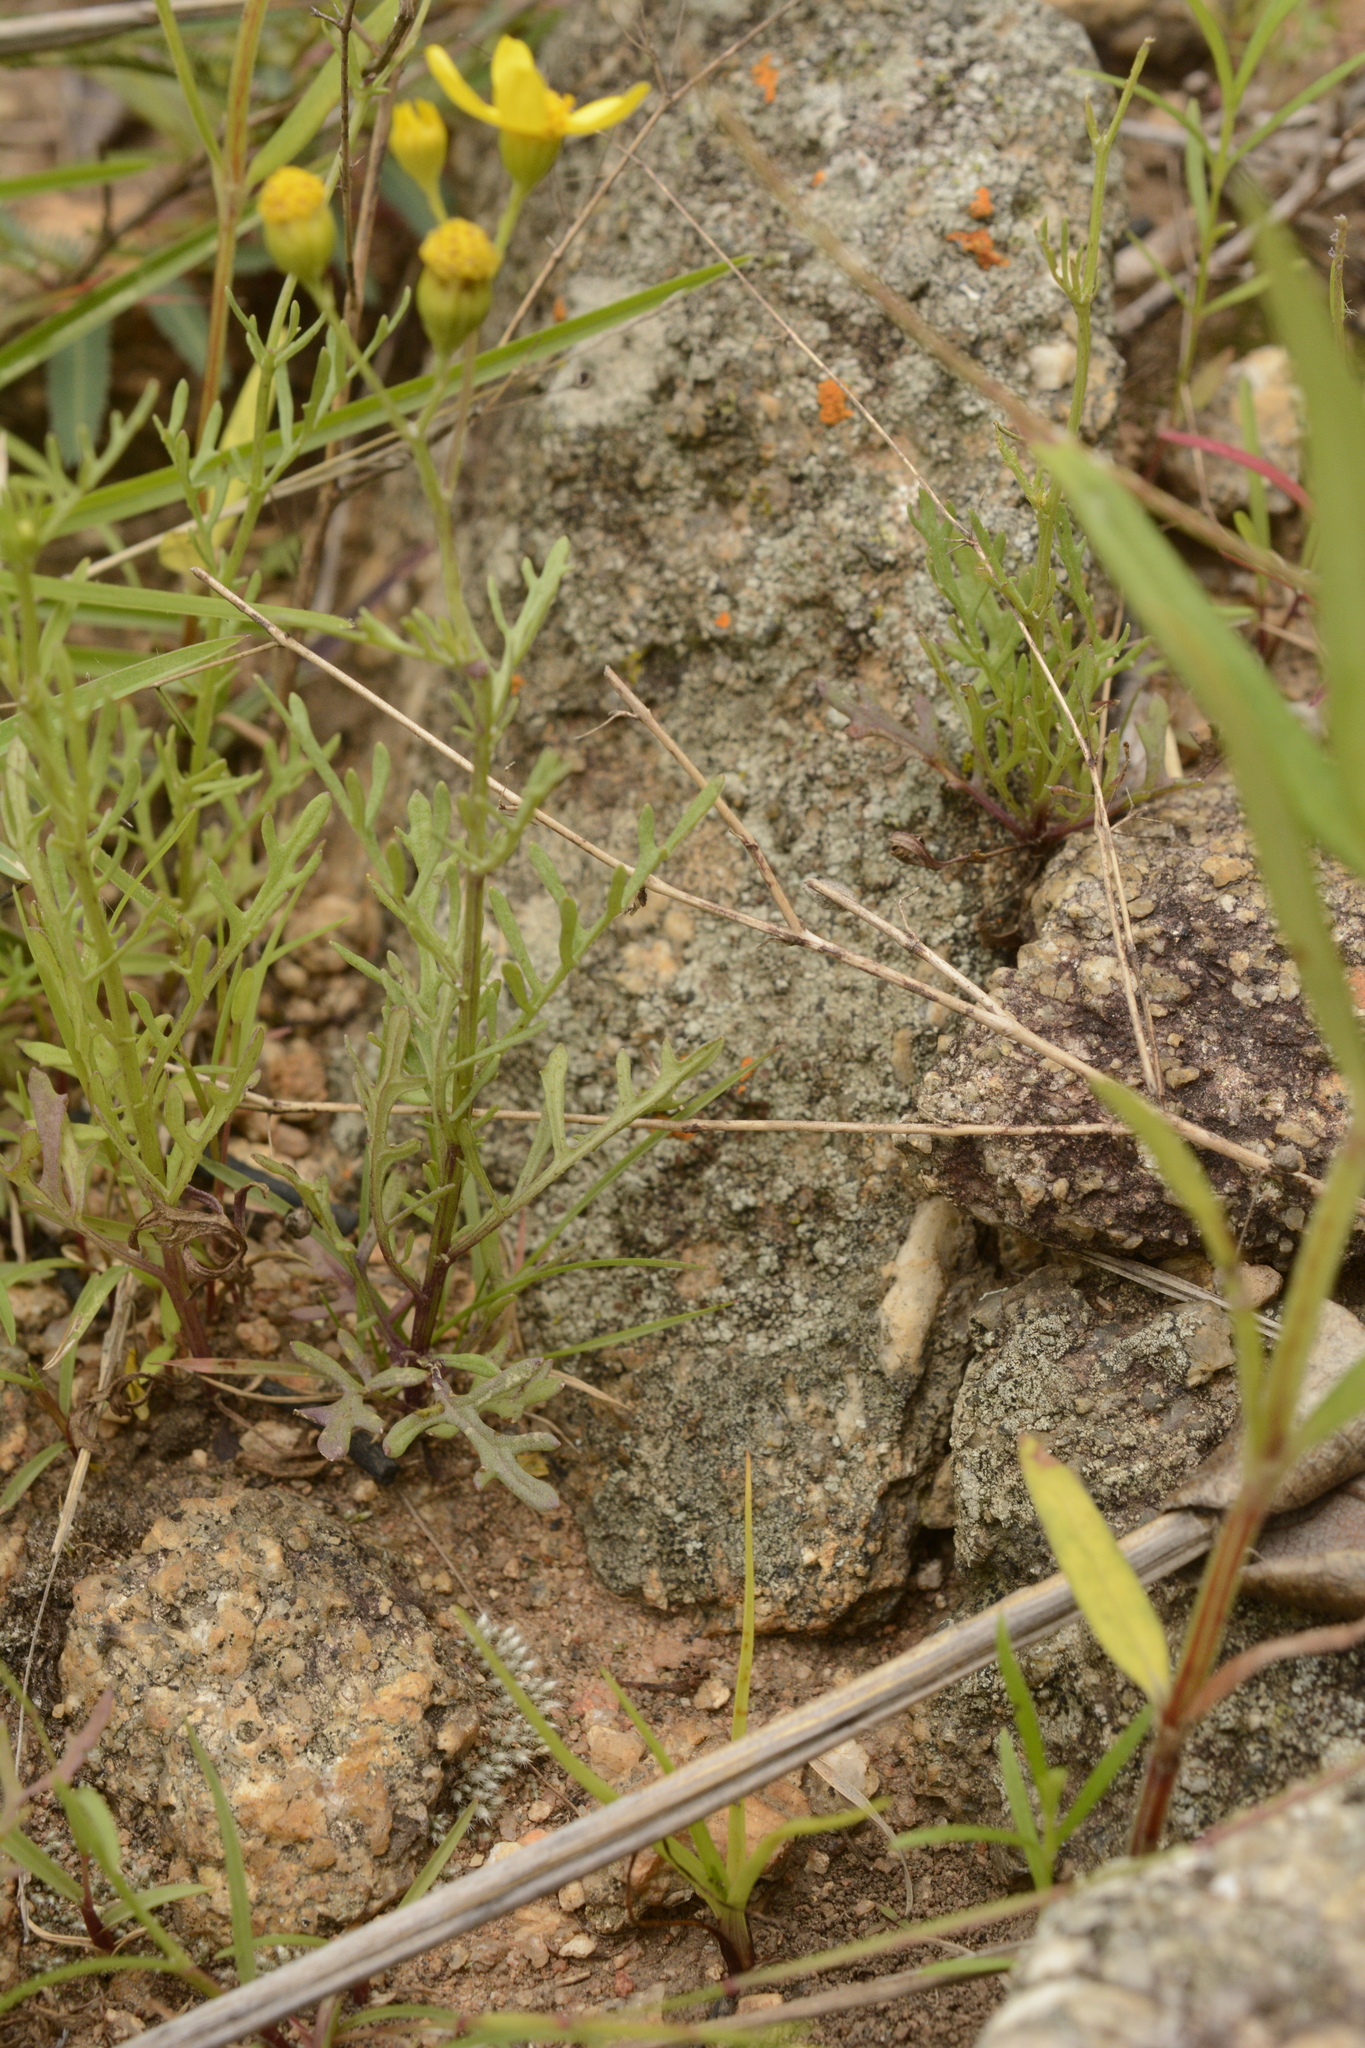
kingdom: Plantae
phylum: Tracheophyta
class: Magnoliopsida
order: Asterales
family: Asteraceae
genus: Senecio
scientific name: Senecio tenuifolius
